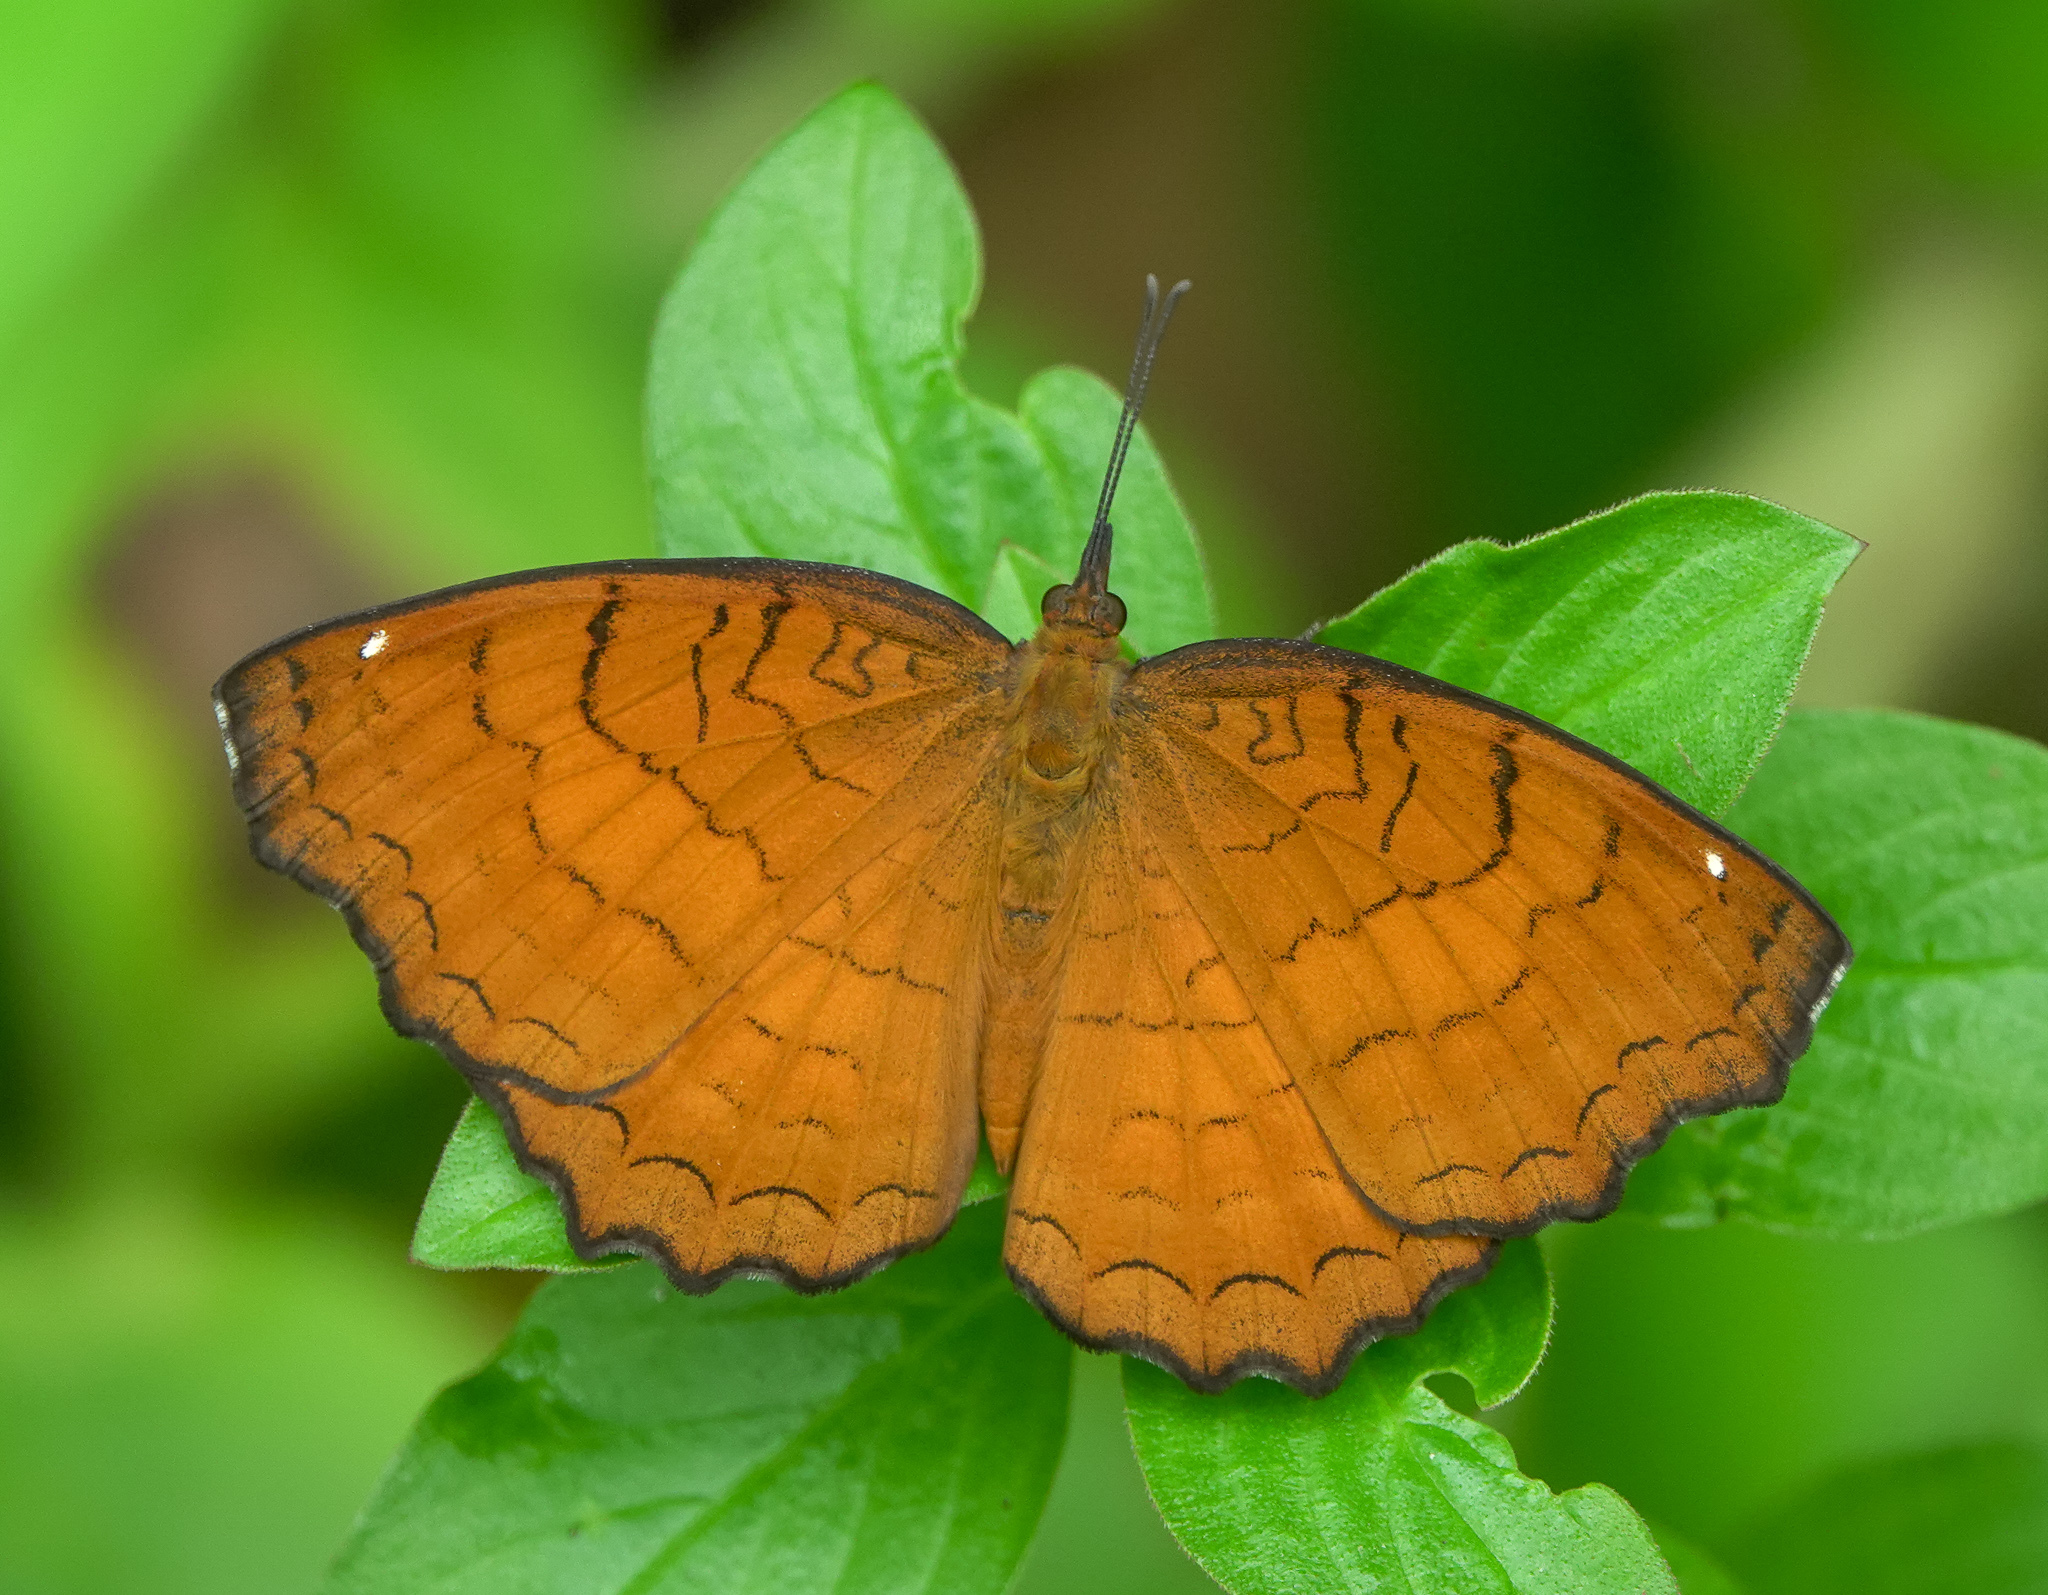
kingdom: Animalia
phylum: Arthropoda
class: Insecta
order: Lepidoptera
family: Nymphalidae
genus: Ariadne
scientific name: Ariadne ariadne
